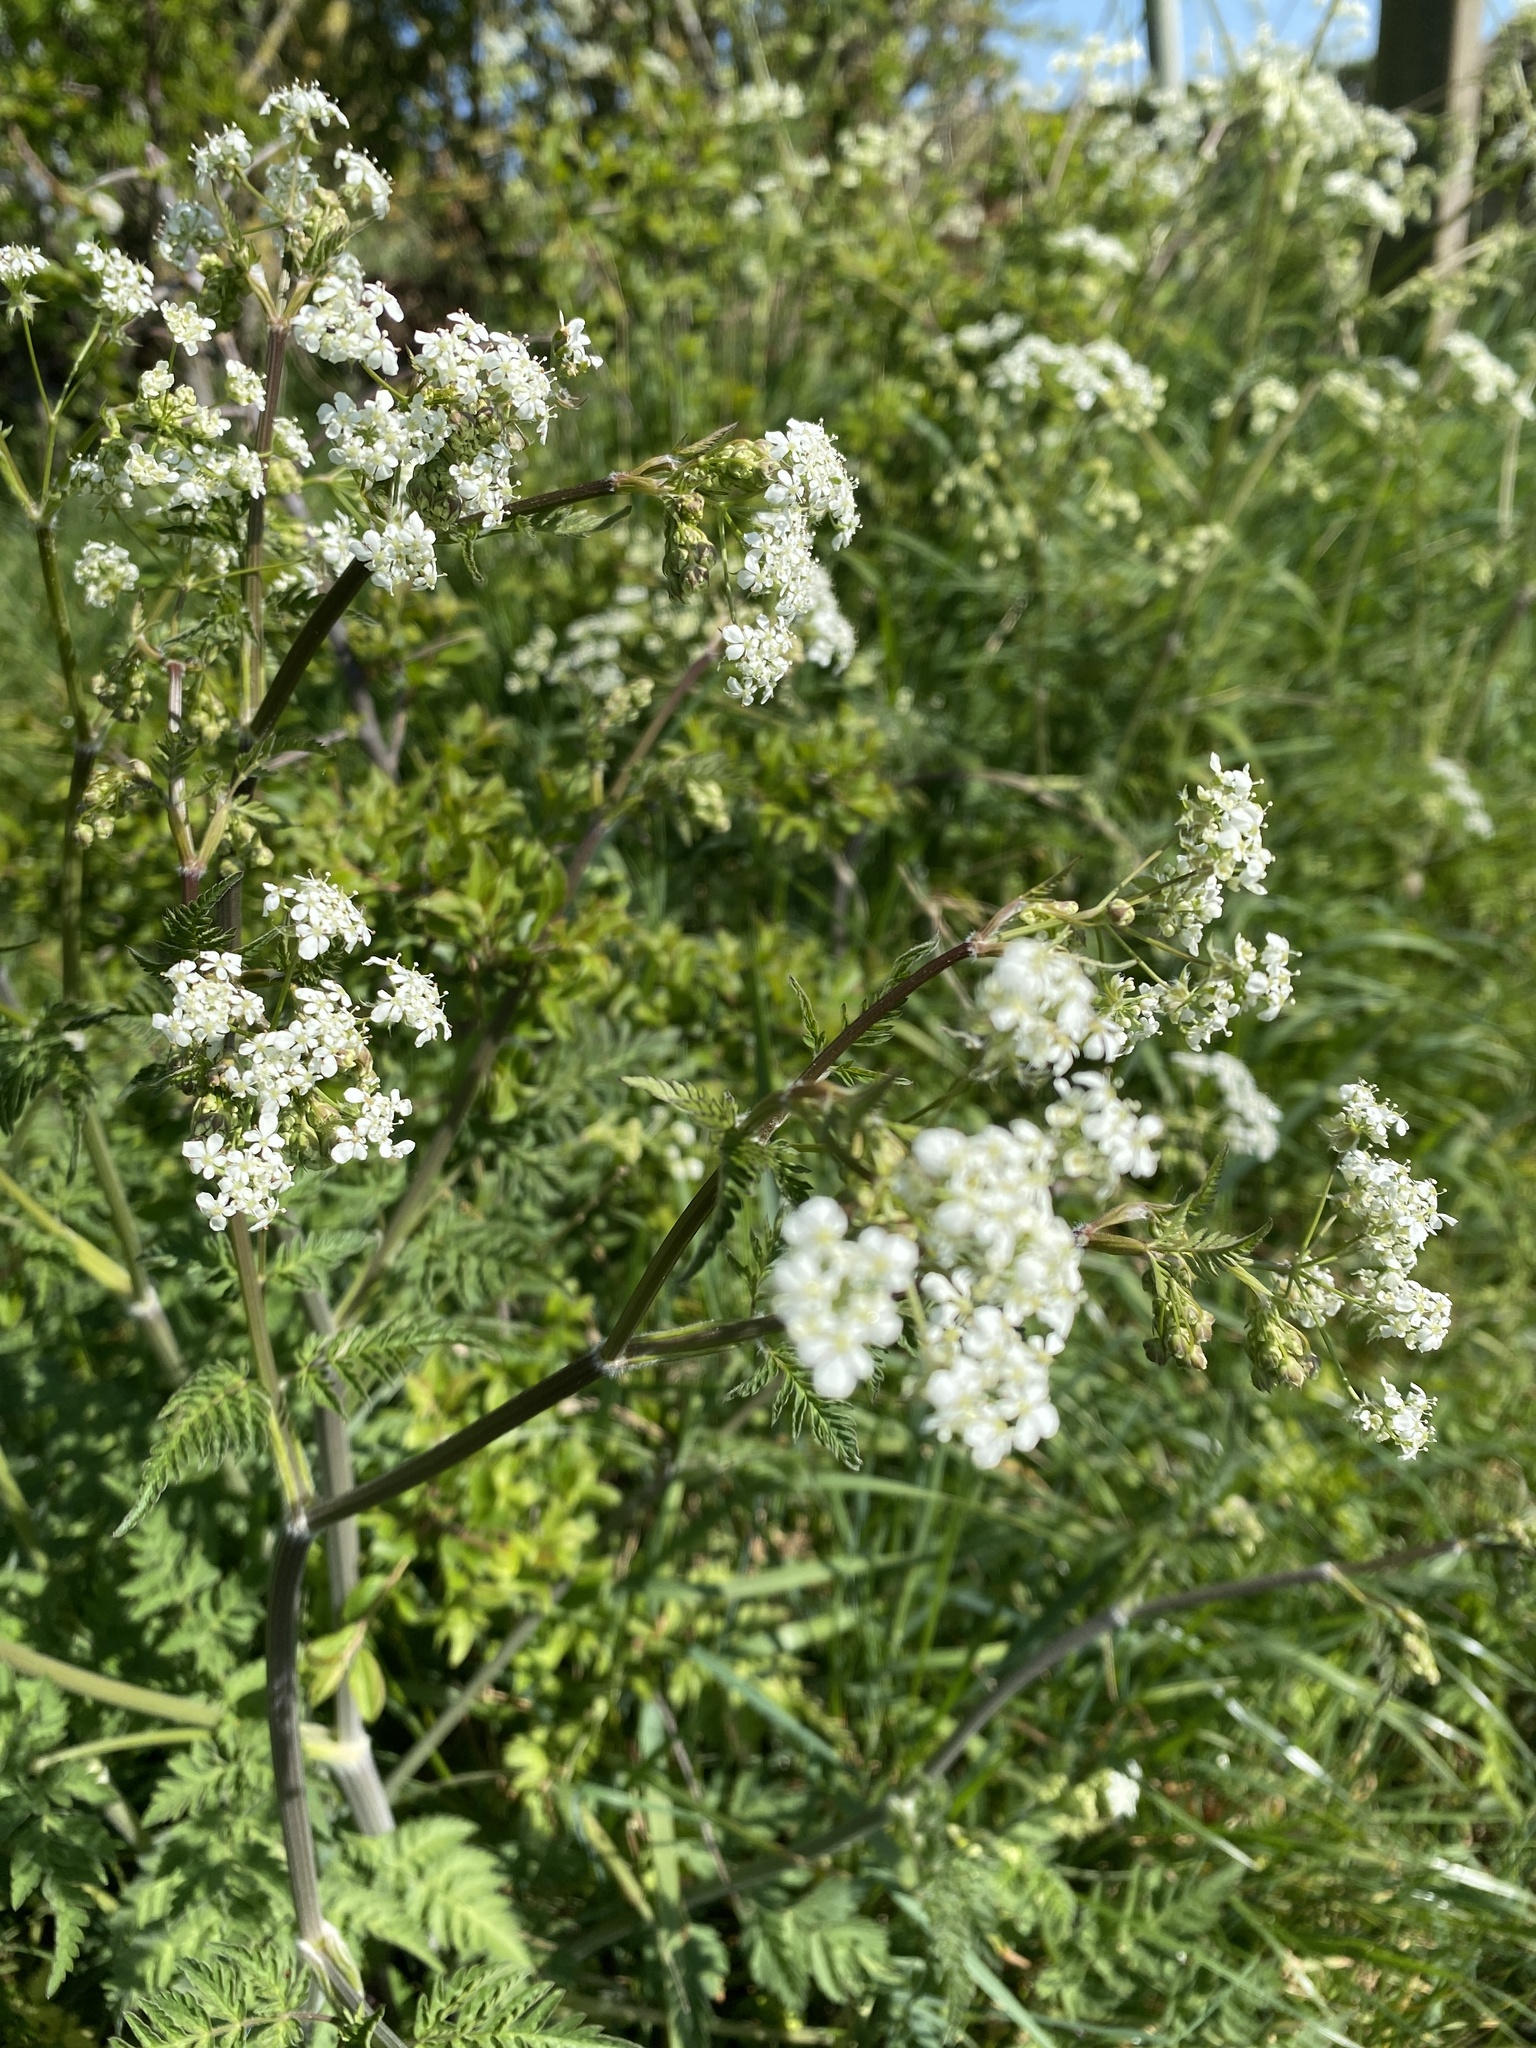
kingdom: Plantae
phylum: Tracheophyta
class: Magnoliopsida
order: Apiales
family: Apiaceae
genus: Anthriscus
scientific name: Anthriscus sylvestris
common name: Cow parsley
